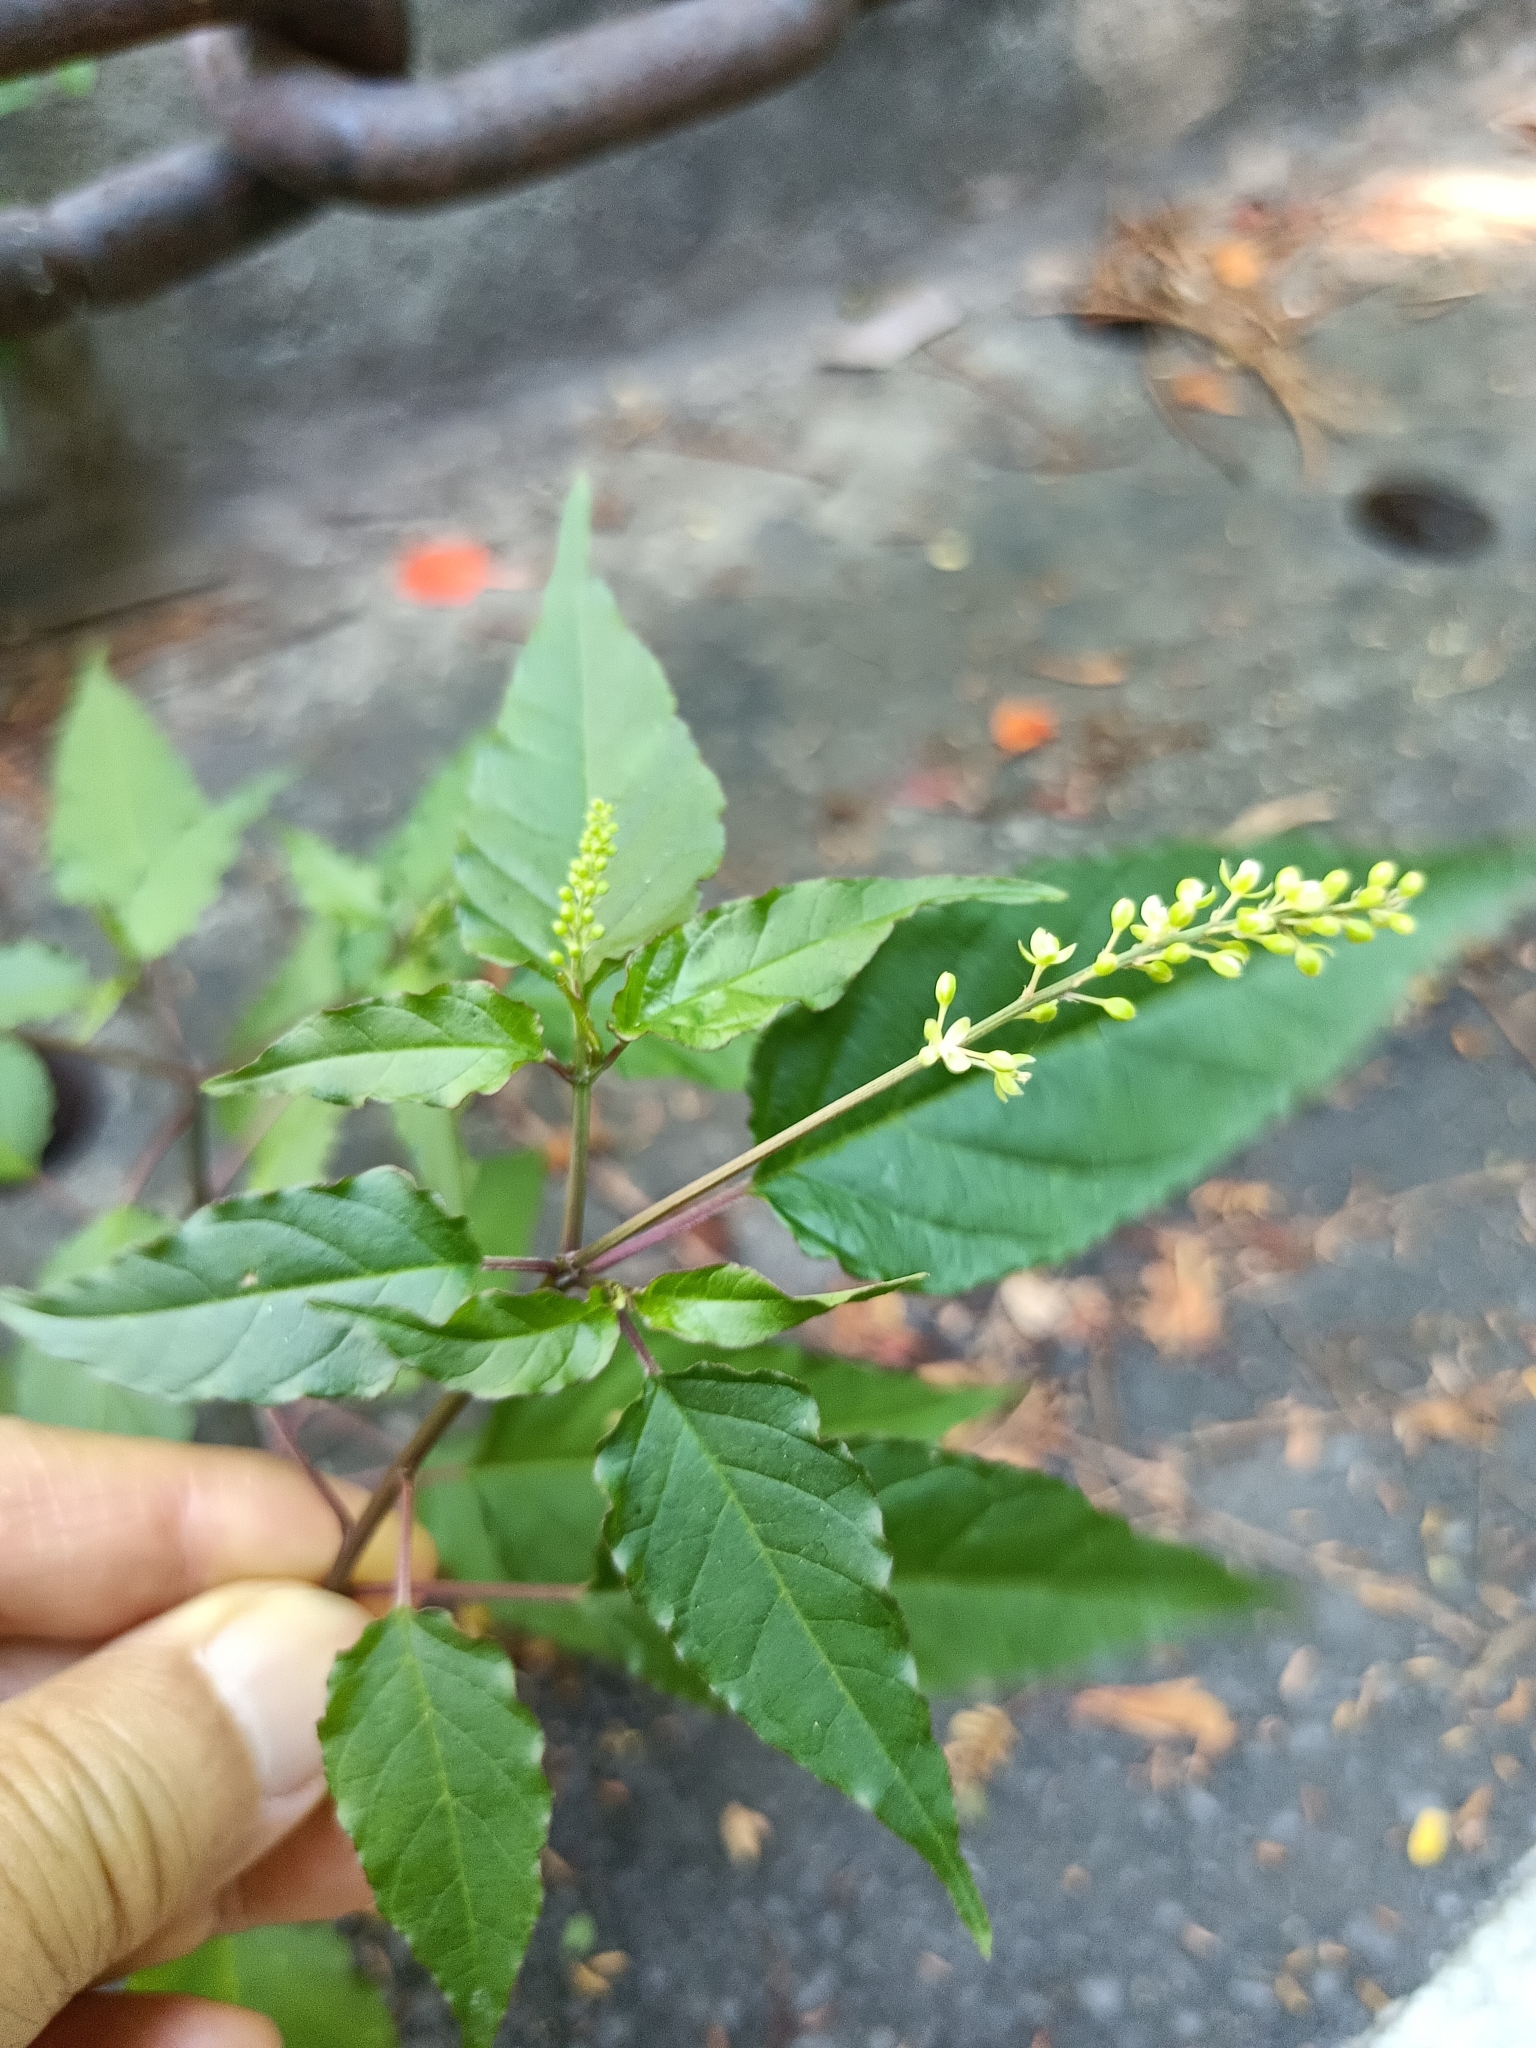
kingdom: Plantae
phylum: Tracheophyta
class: Magnoliopsida
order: Caryophyllales
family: Phytolaccaceae
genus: Rivina
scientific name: Rivina humilis
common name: Rougeplant
